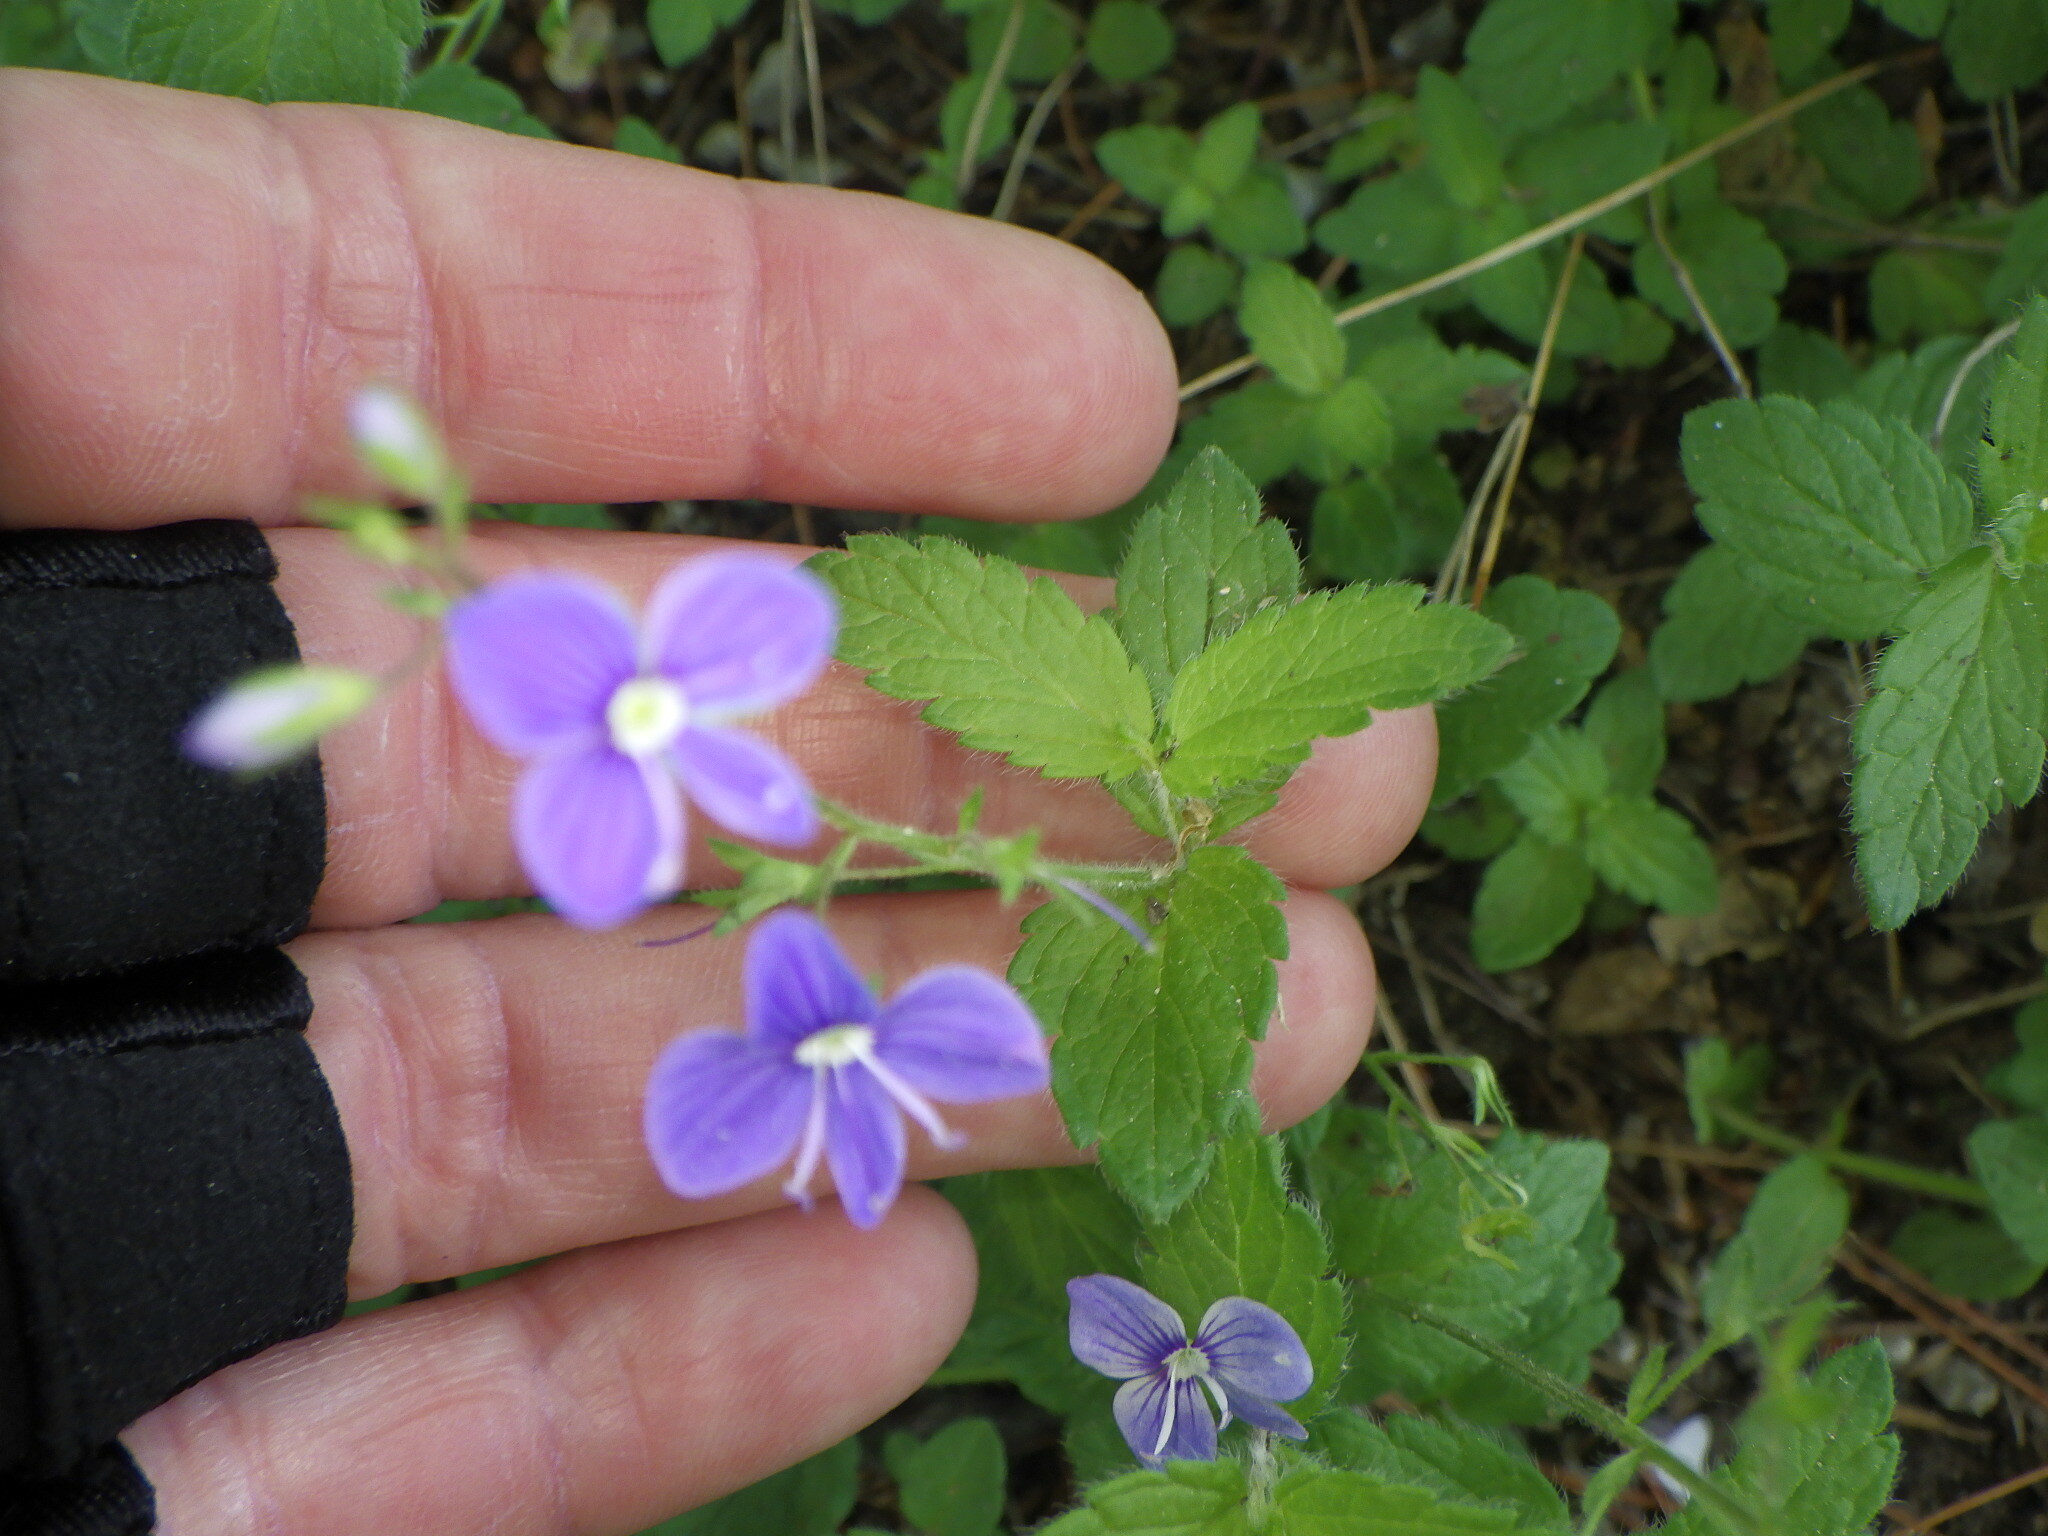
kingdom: Plantae
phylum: Tracheophyta
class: Magnoliopsida
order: Lamiales
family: Plantaginaceae
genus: Veronica
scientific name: Veronica chamaedrys
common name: Germander speedwell
